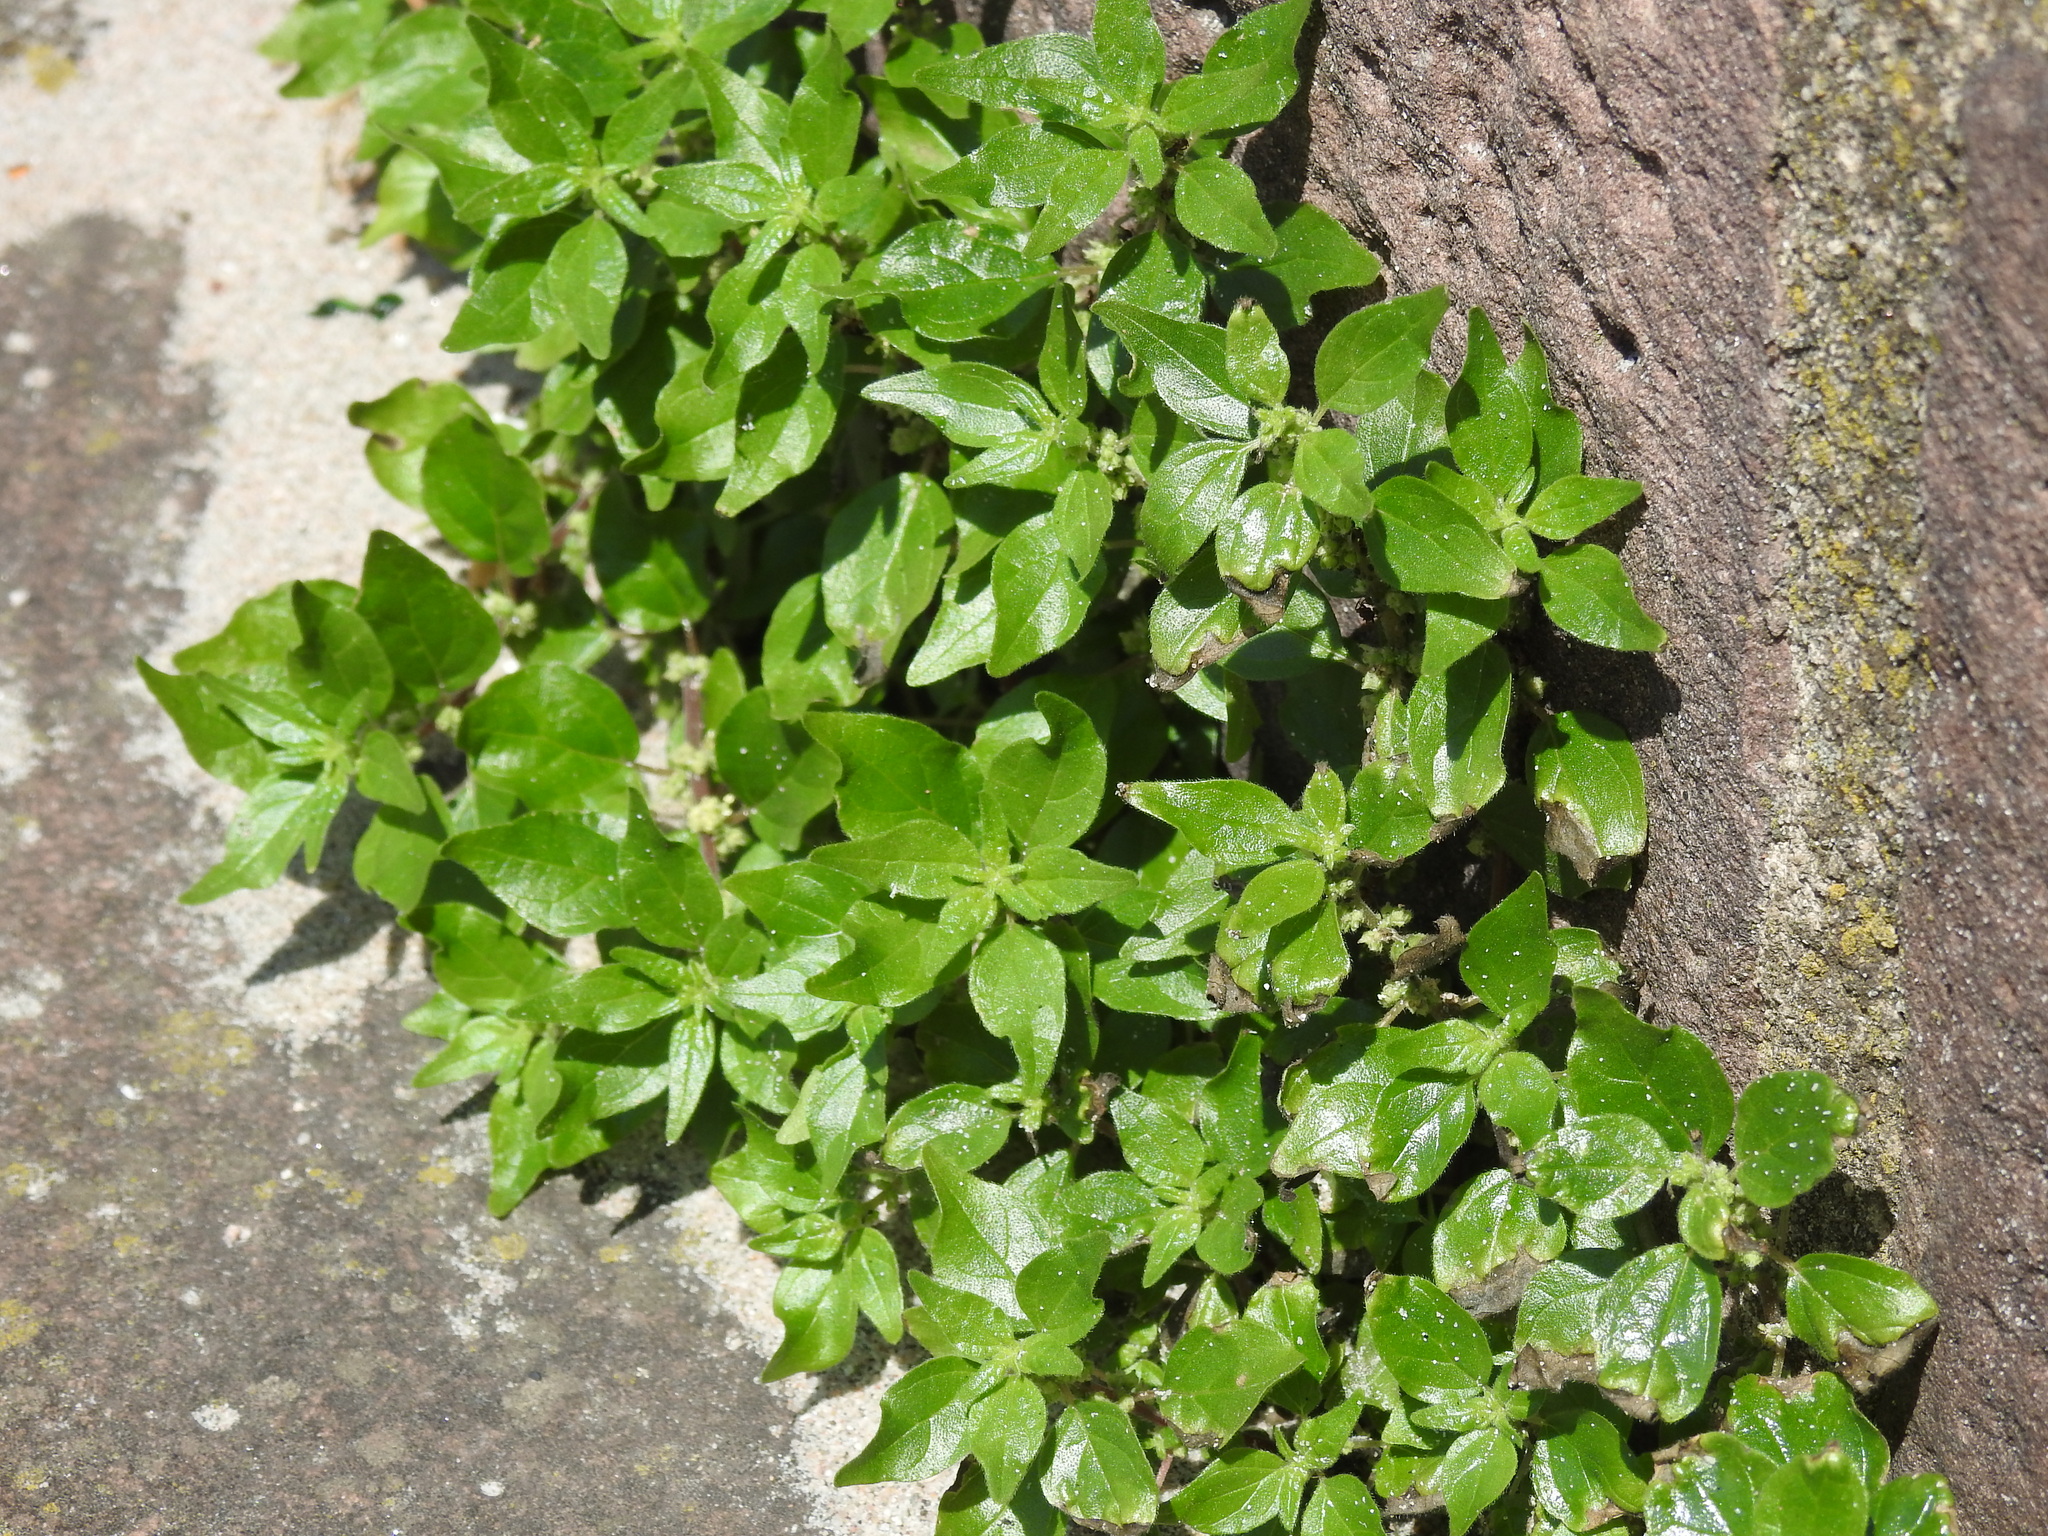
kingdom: Plantae
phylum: Tracheophyta
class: Magnoliopsida
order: Rosales
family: Urticaceae
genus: Parietaria
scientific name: Parietaria judaica
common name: Pellitory-of-the-wall
